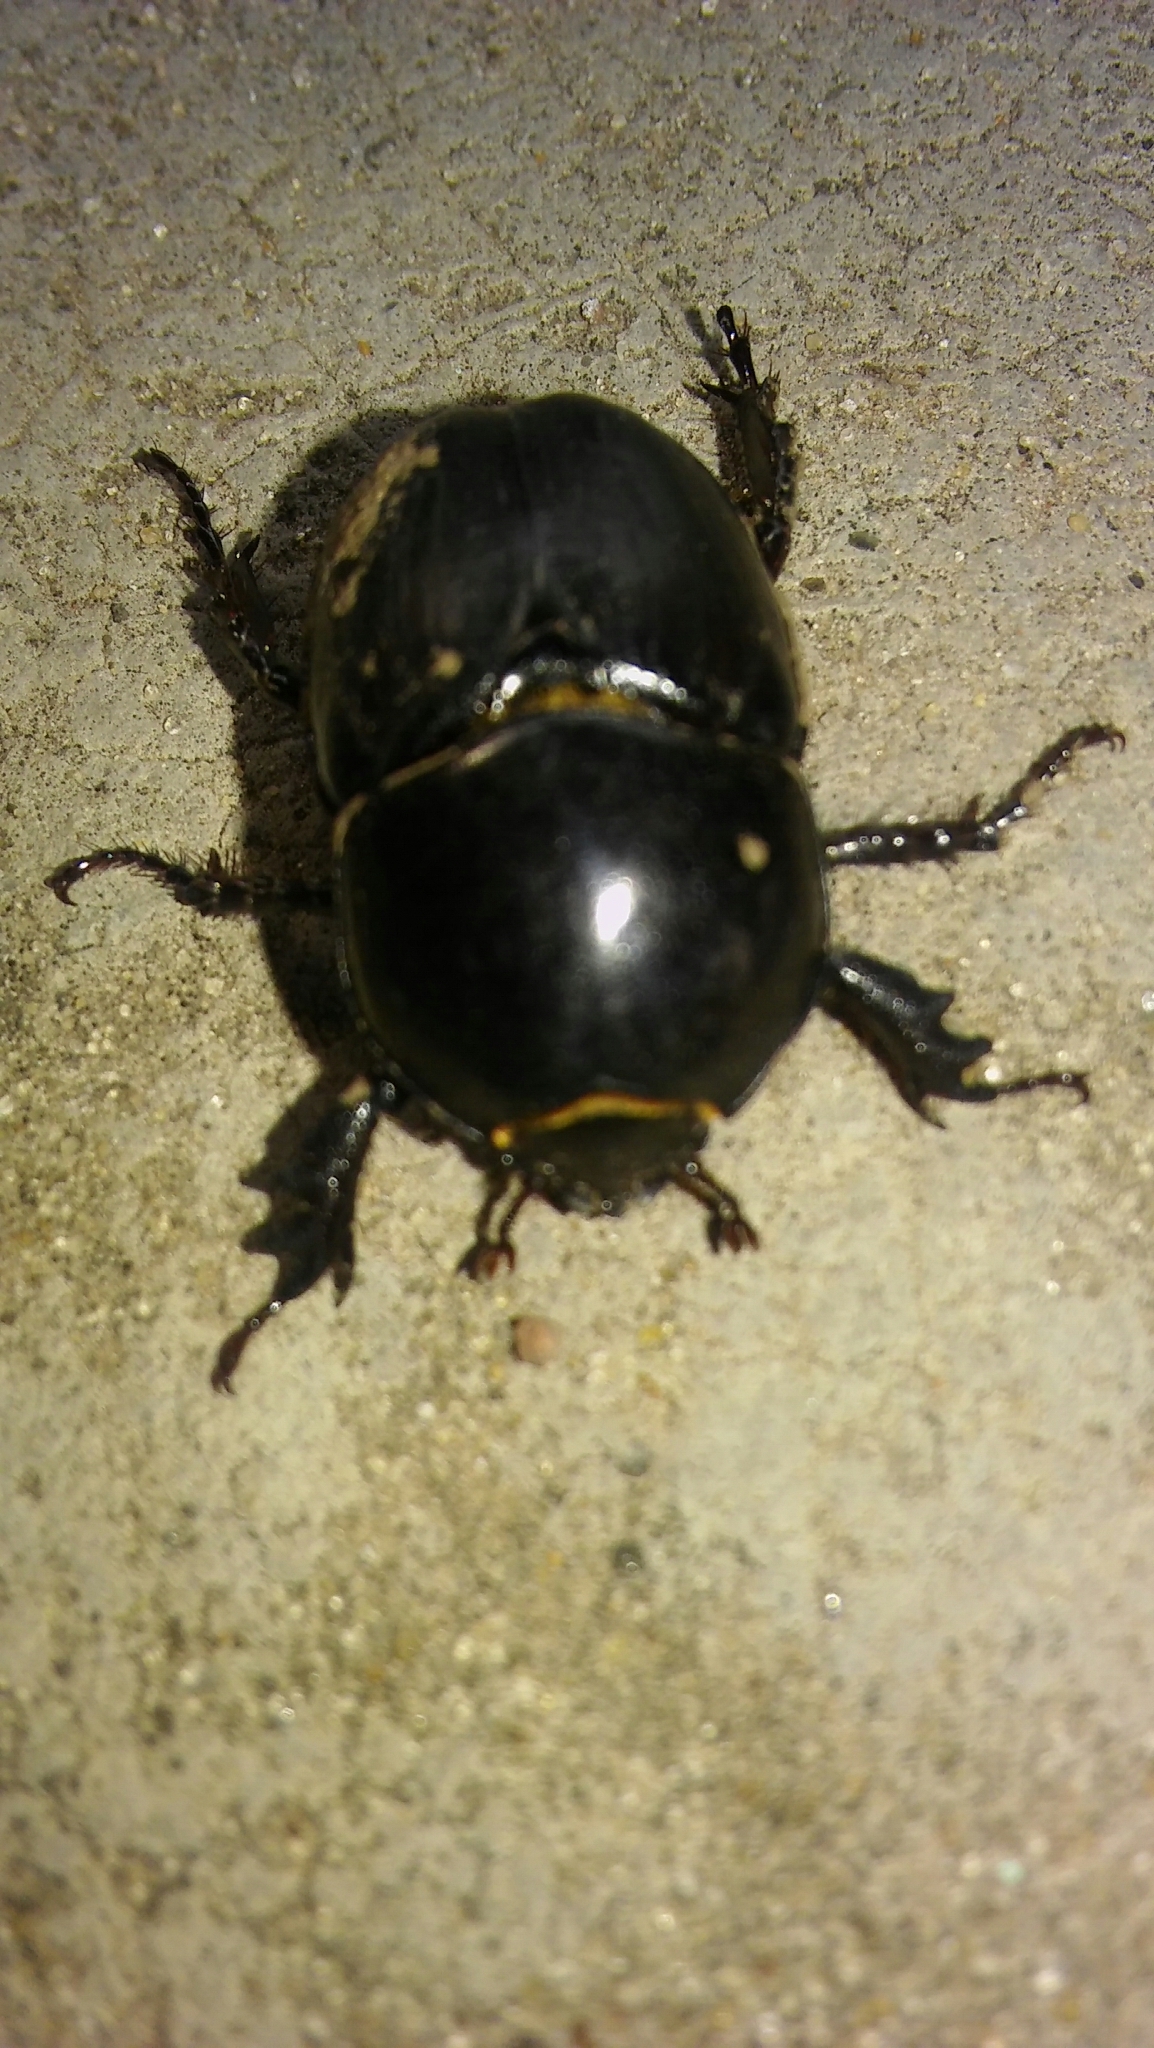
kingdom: Animalia
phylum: Arthropoda
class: Insecta
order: Coleoptera
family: Scarabaeidae
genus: Diloboderus
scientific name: Diloboderus abderus
